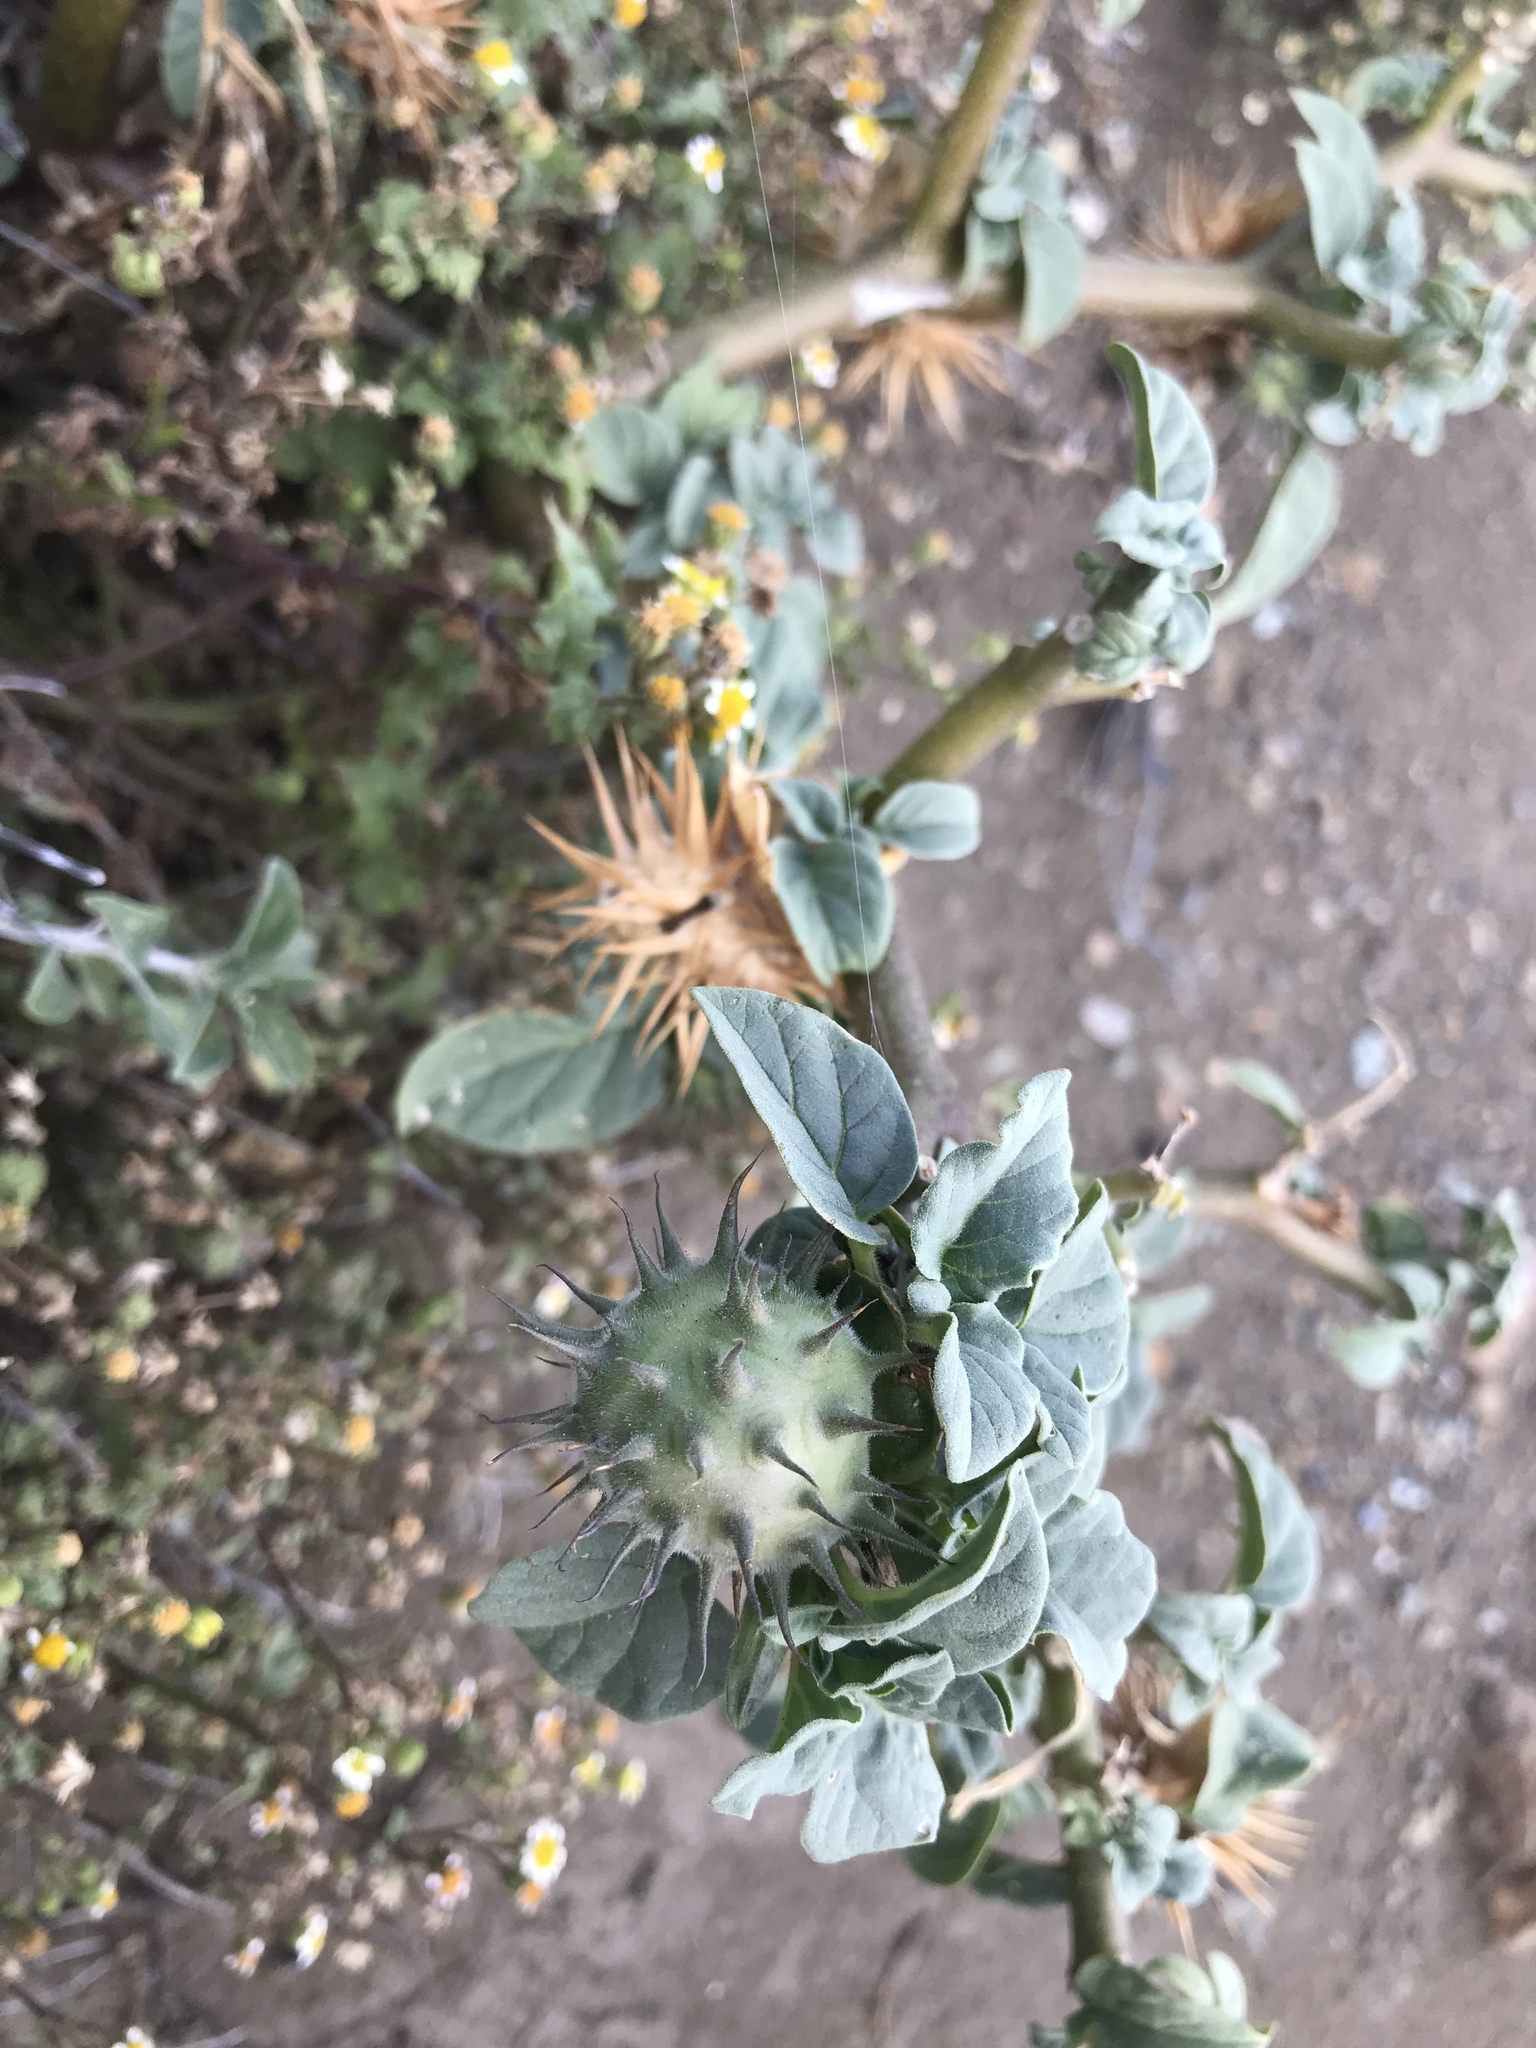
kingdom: Plantae
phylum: Tracheophyta
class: Magnoliopsida
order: Solanales
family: Solanaceae
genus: Datura
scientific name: Datura discolor
